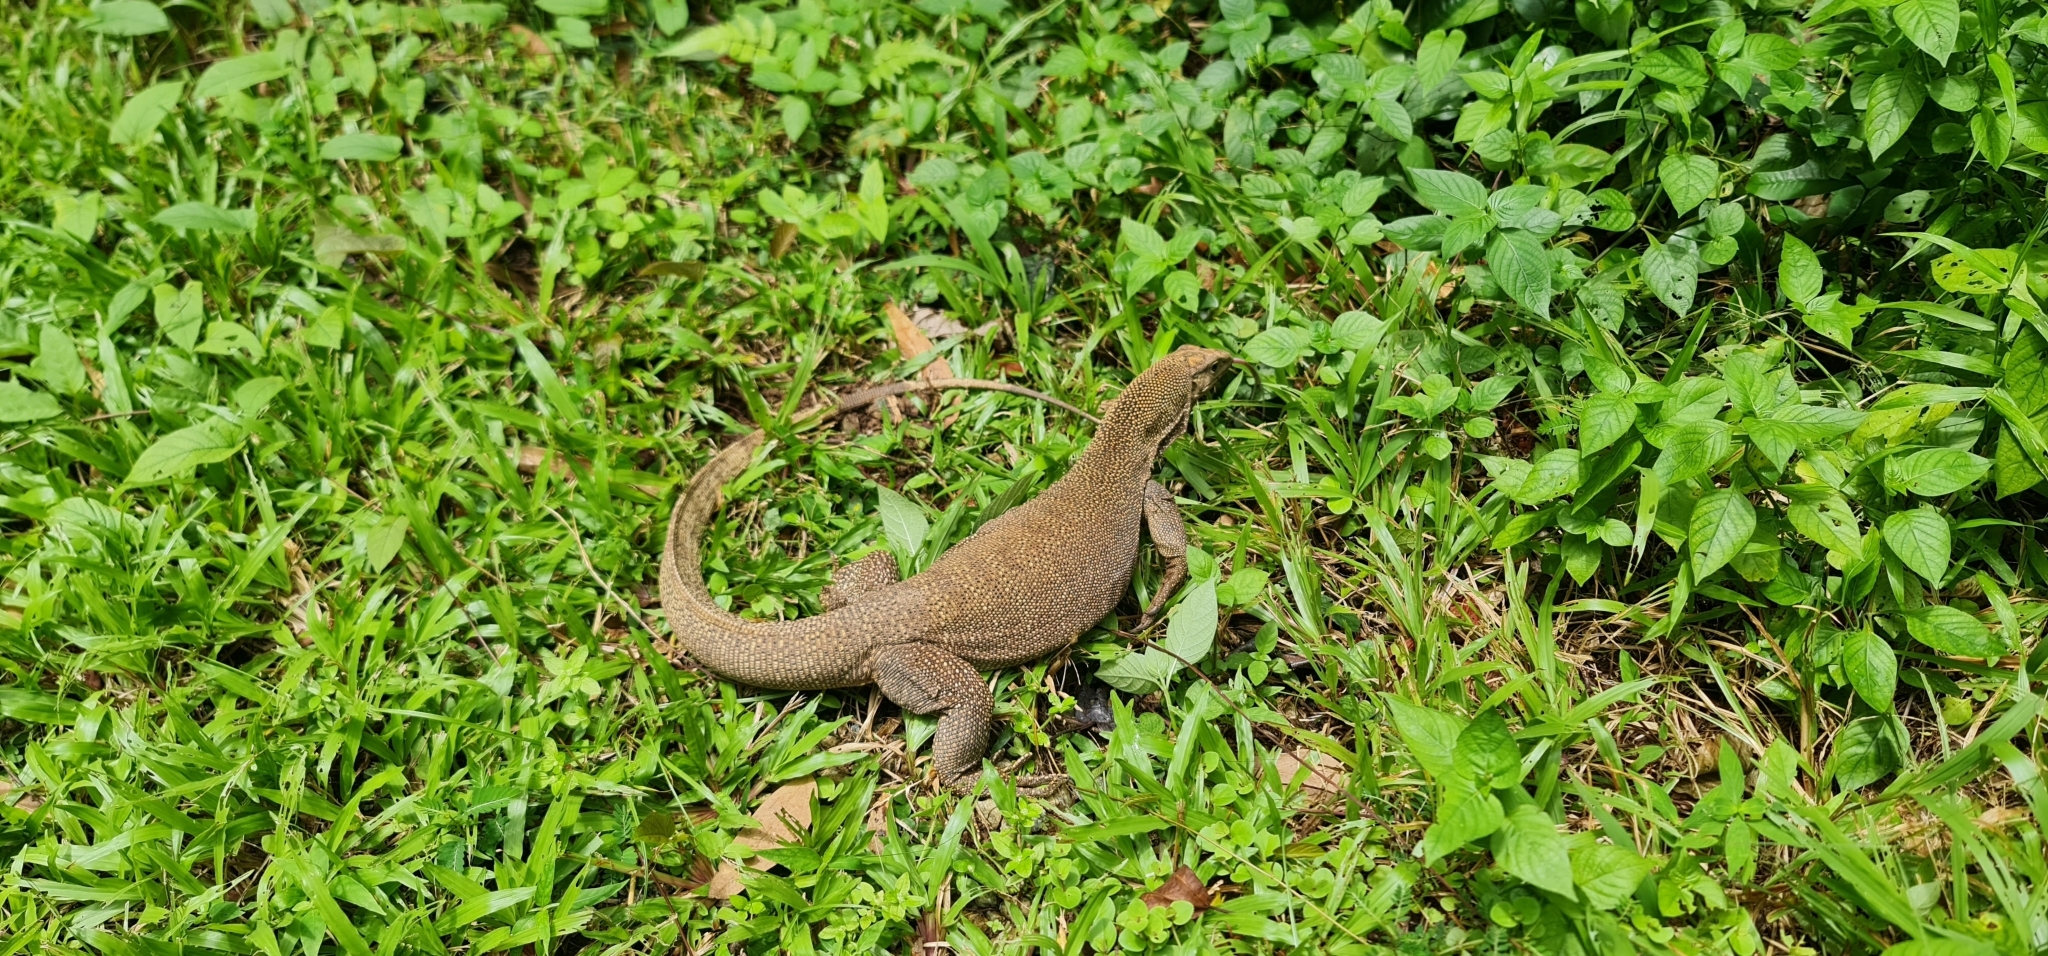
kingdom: Animalia
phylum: Chordata
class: Squamata
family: Varanidae
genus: Varanus
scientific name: Varanus nebulosus
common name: Clouded monitor
